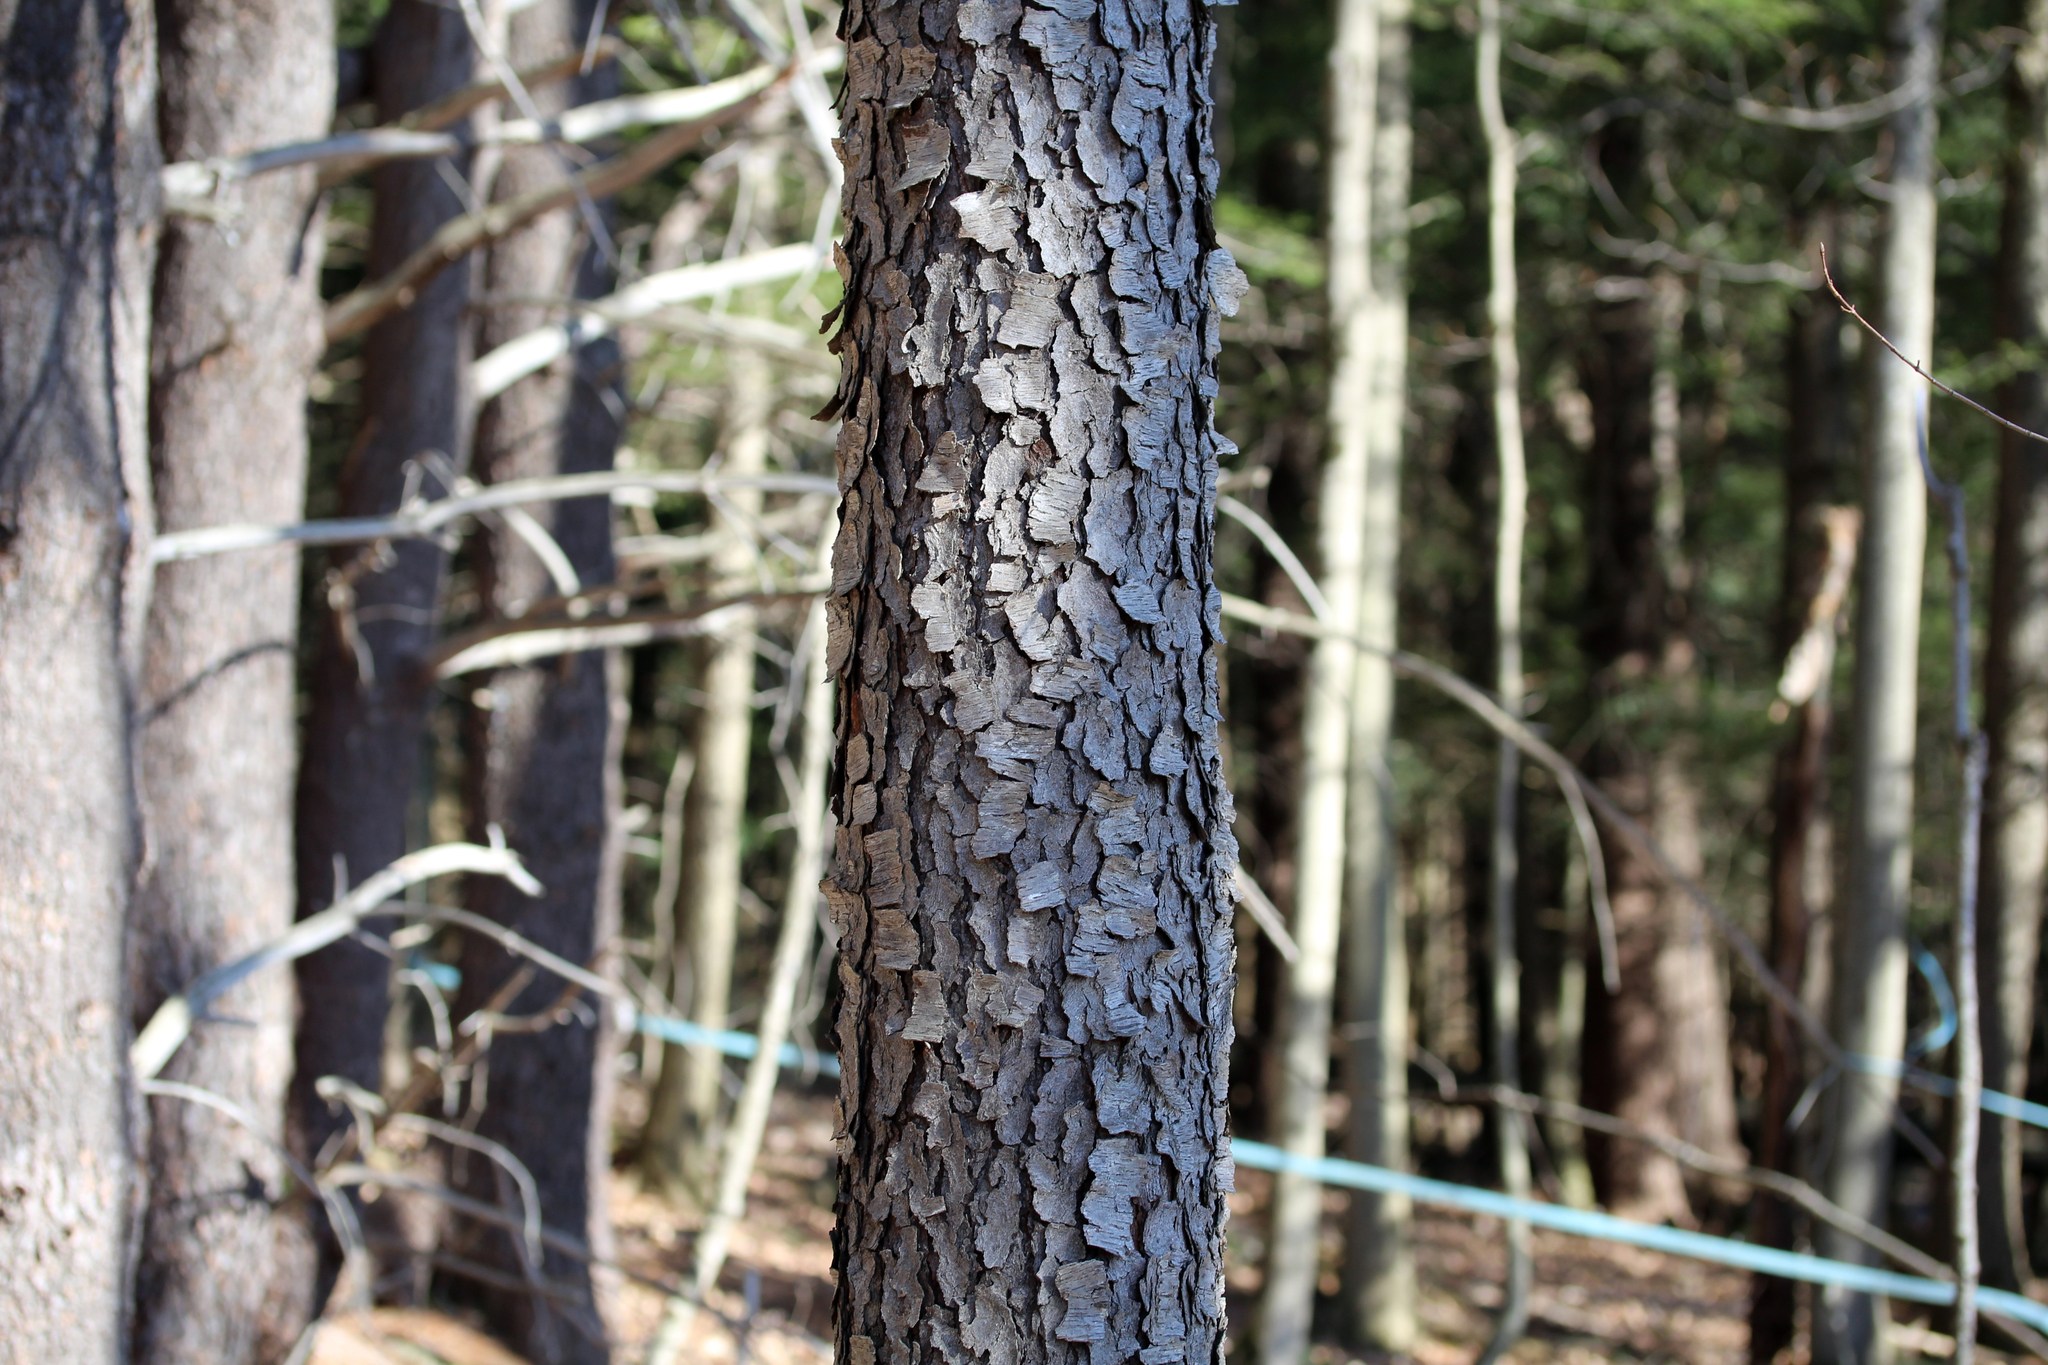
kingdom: Plantae
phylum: Tracheophyta
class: Magnoliopsida
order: Rosales
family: Rosaceae
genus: Prunus
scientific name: Prunus serotina
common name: Black cherry
